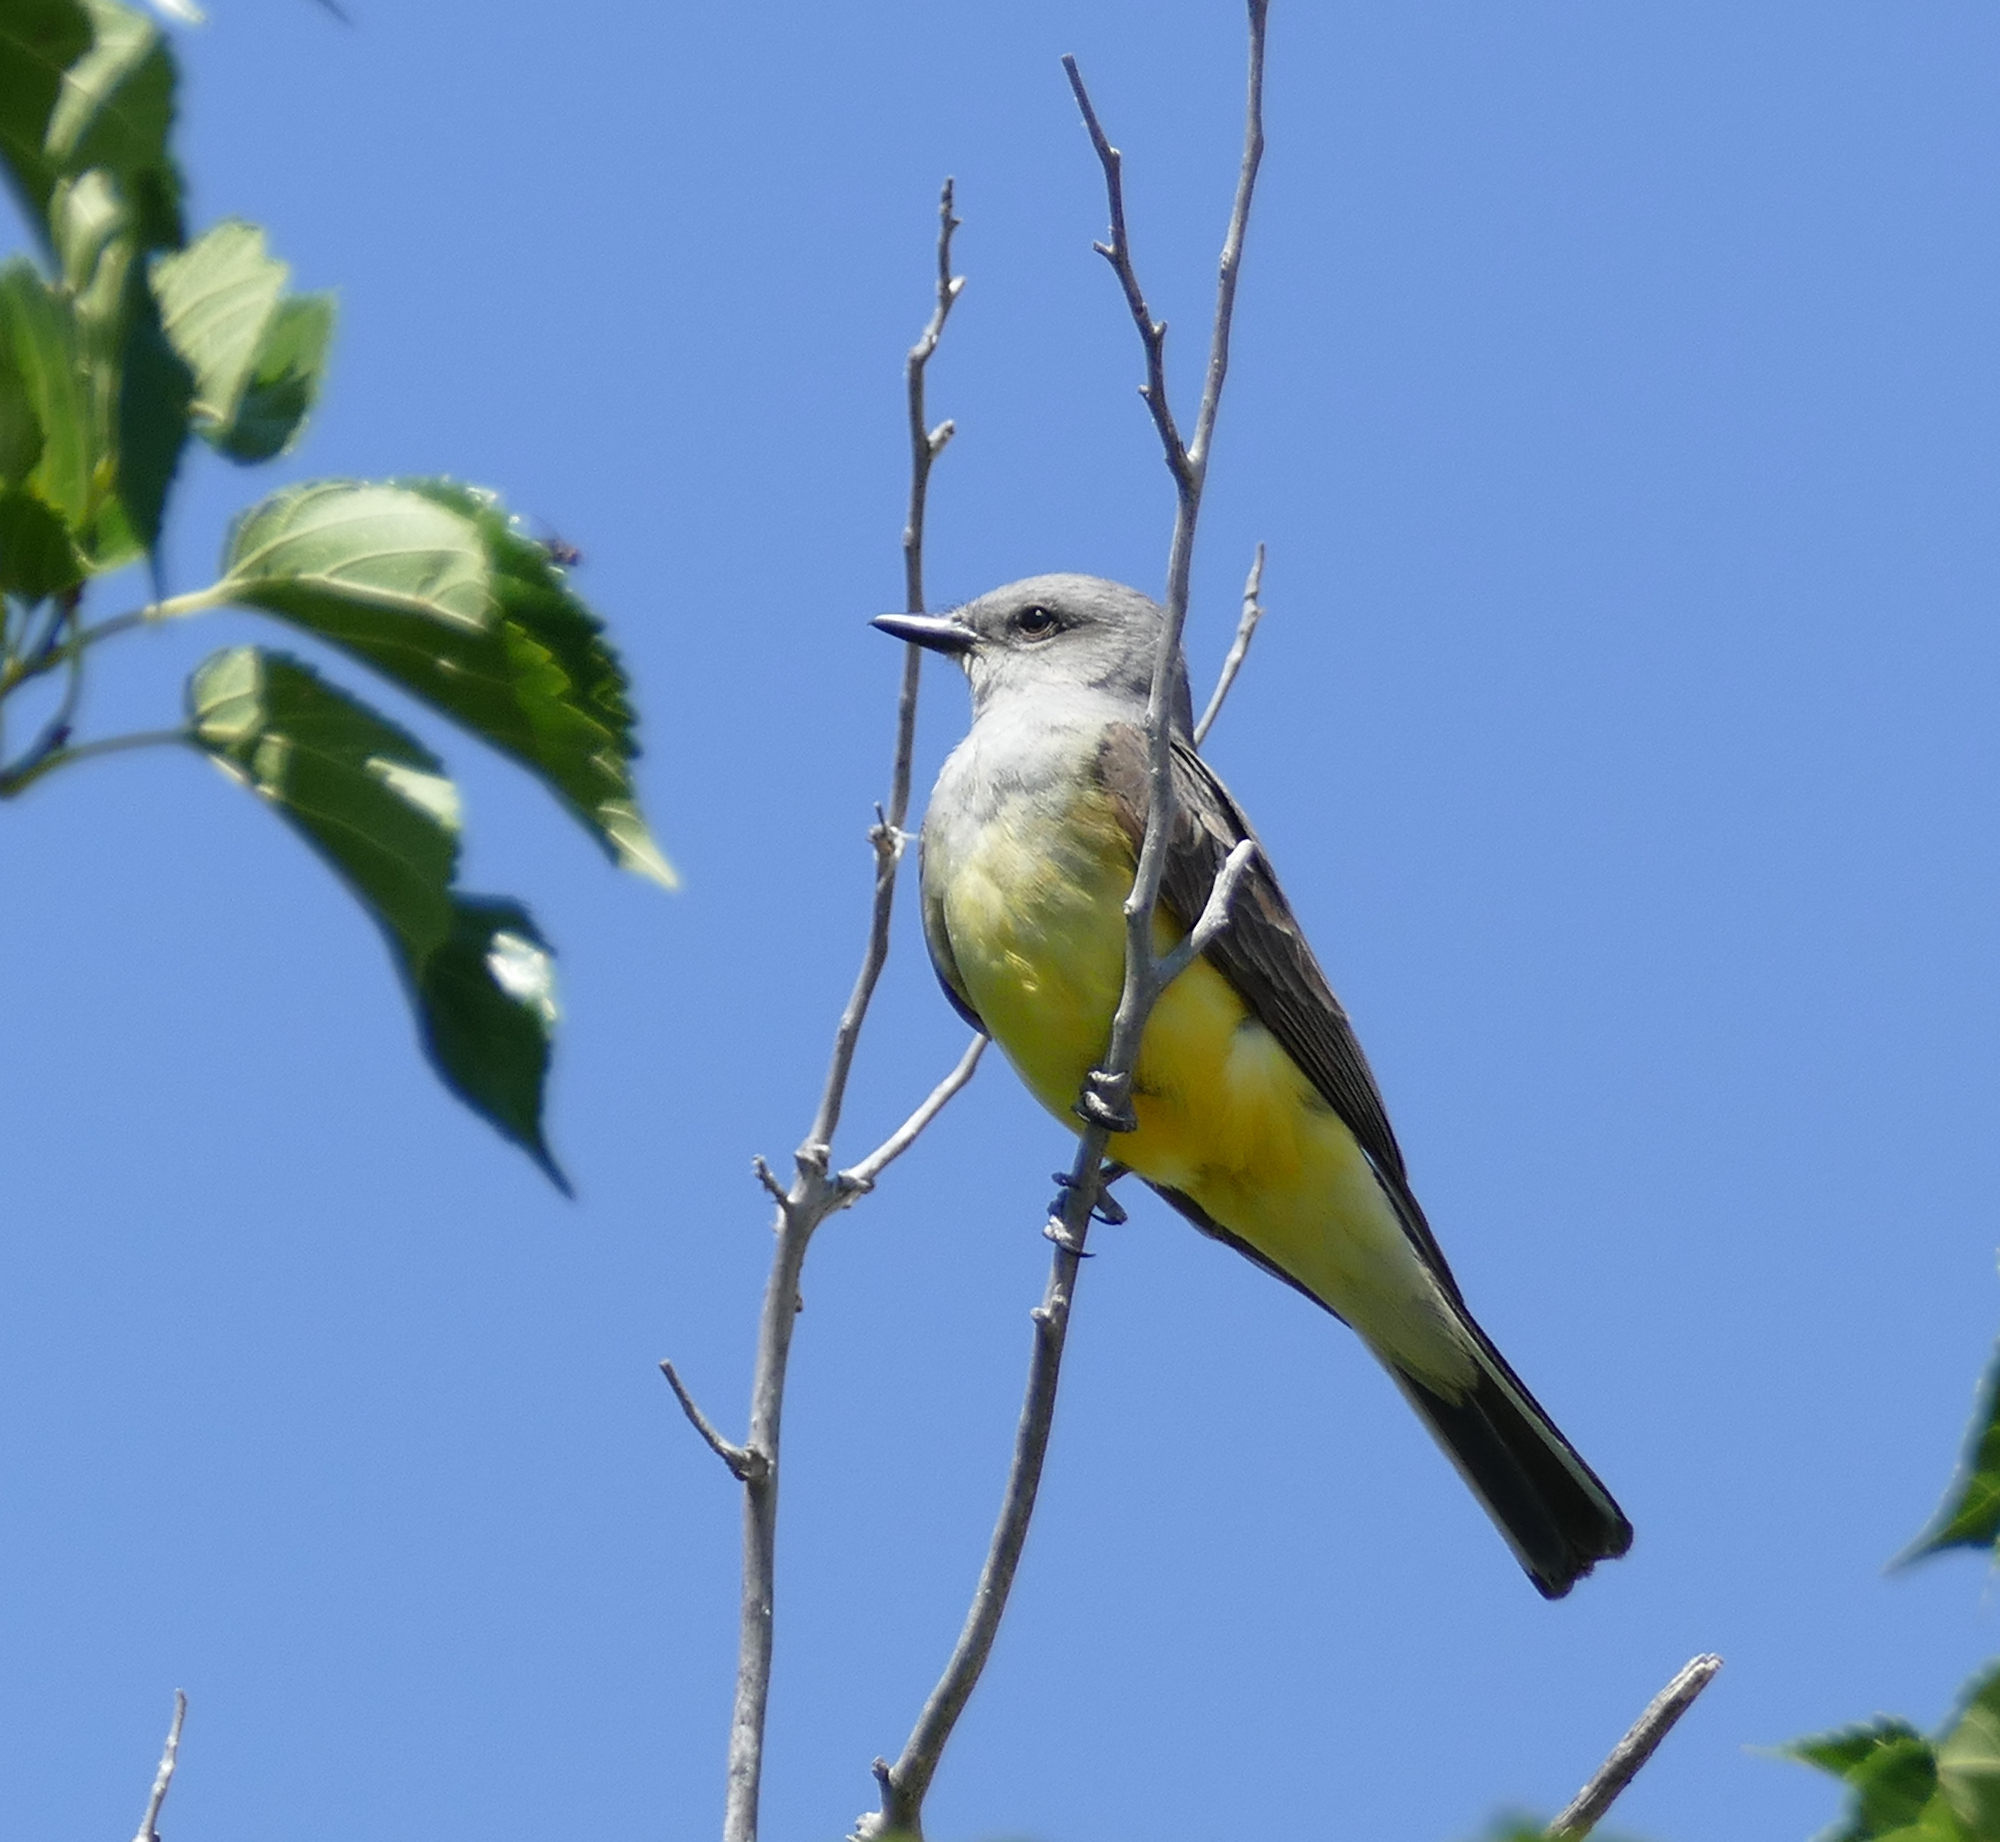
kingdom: Animalia
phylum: Chordata
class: Aves
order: Passeriformes
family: Tyrannidae
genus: Tyrannus
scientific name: Tyrannus verticalis
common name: Western kingbird
